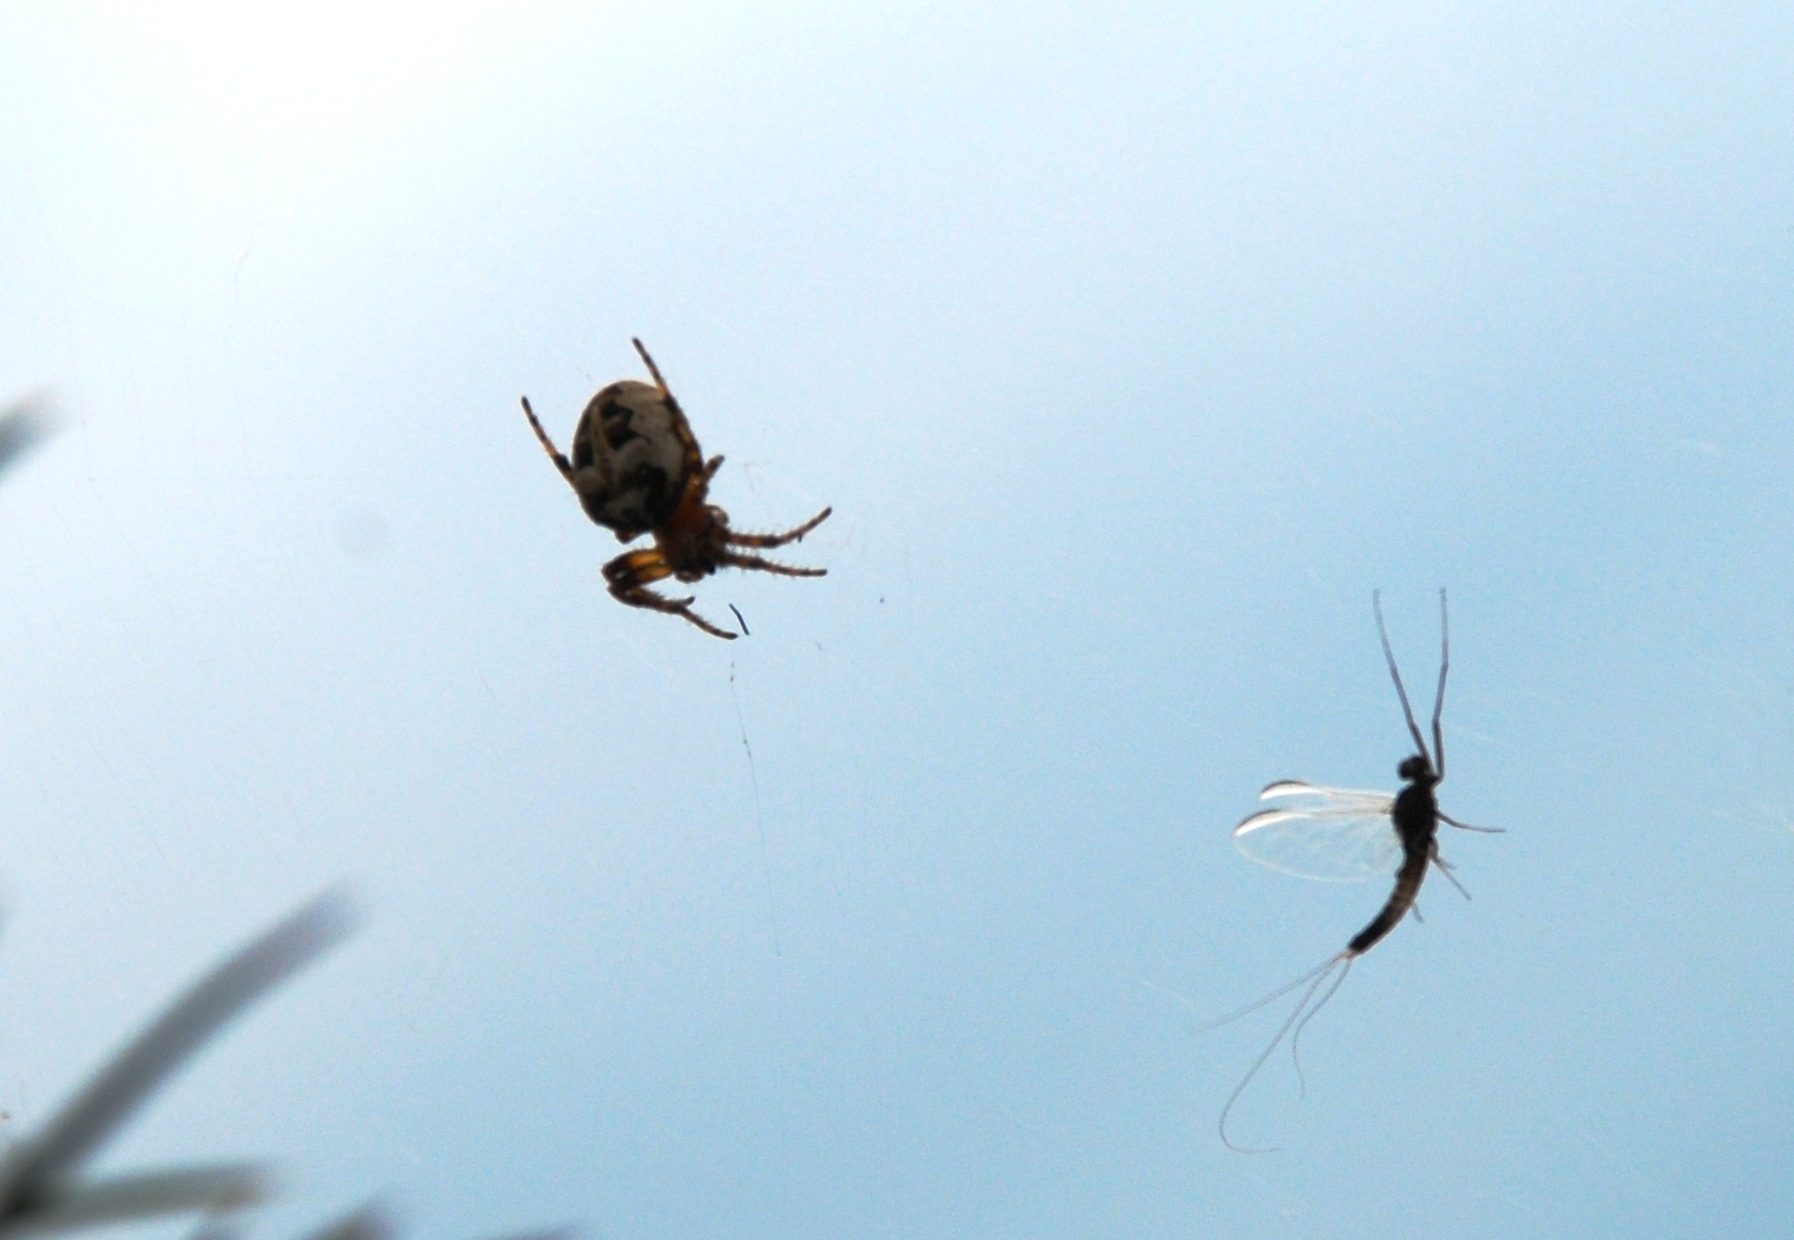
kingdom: Animalia
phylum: Arthropoda
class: Arachnida
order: Araneae
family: Araneidae
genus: Larinioides
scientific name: Larinioides
